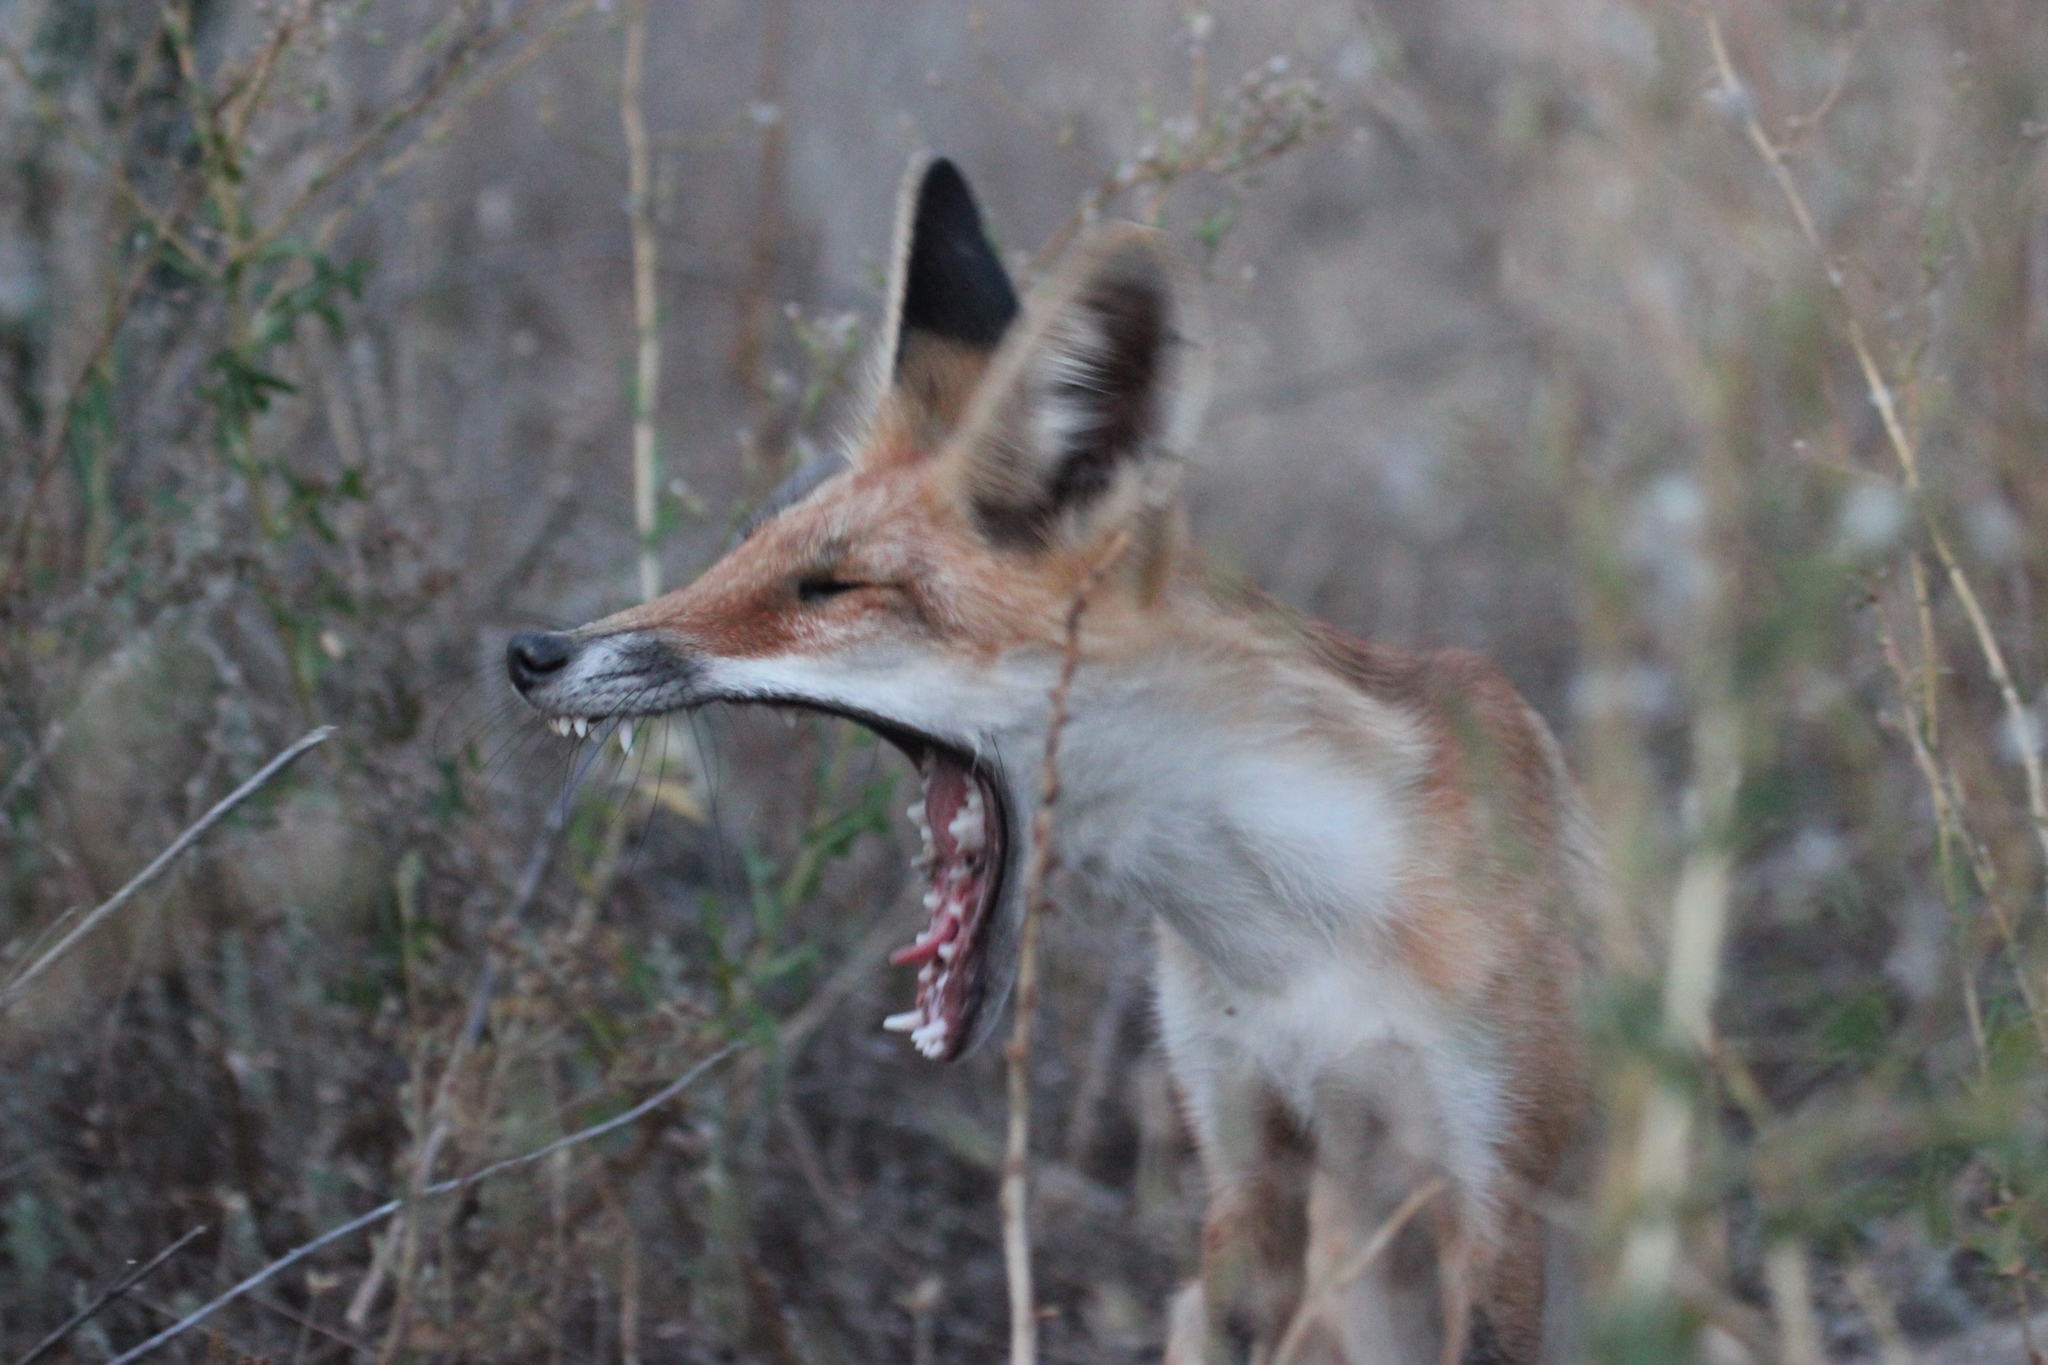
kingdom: Animalia
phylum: Chordata
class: Mammalia
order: Carnivora
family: Canidae
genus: Vulpes
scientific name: Vulpes vulpes
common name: Red fox
